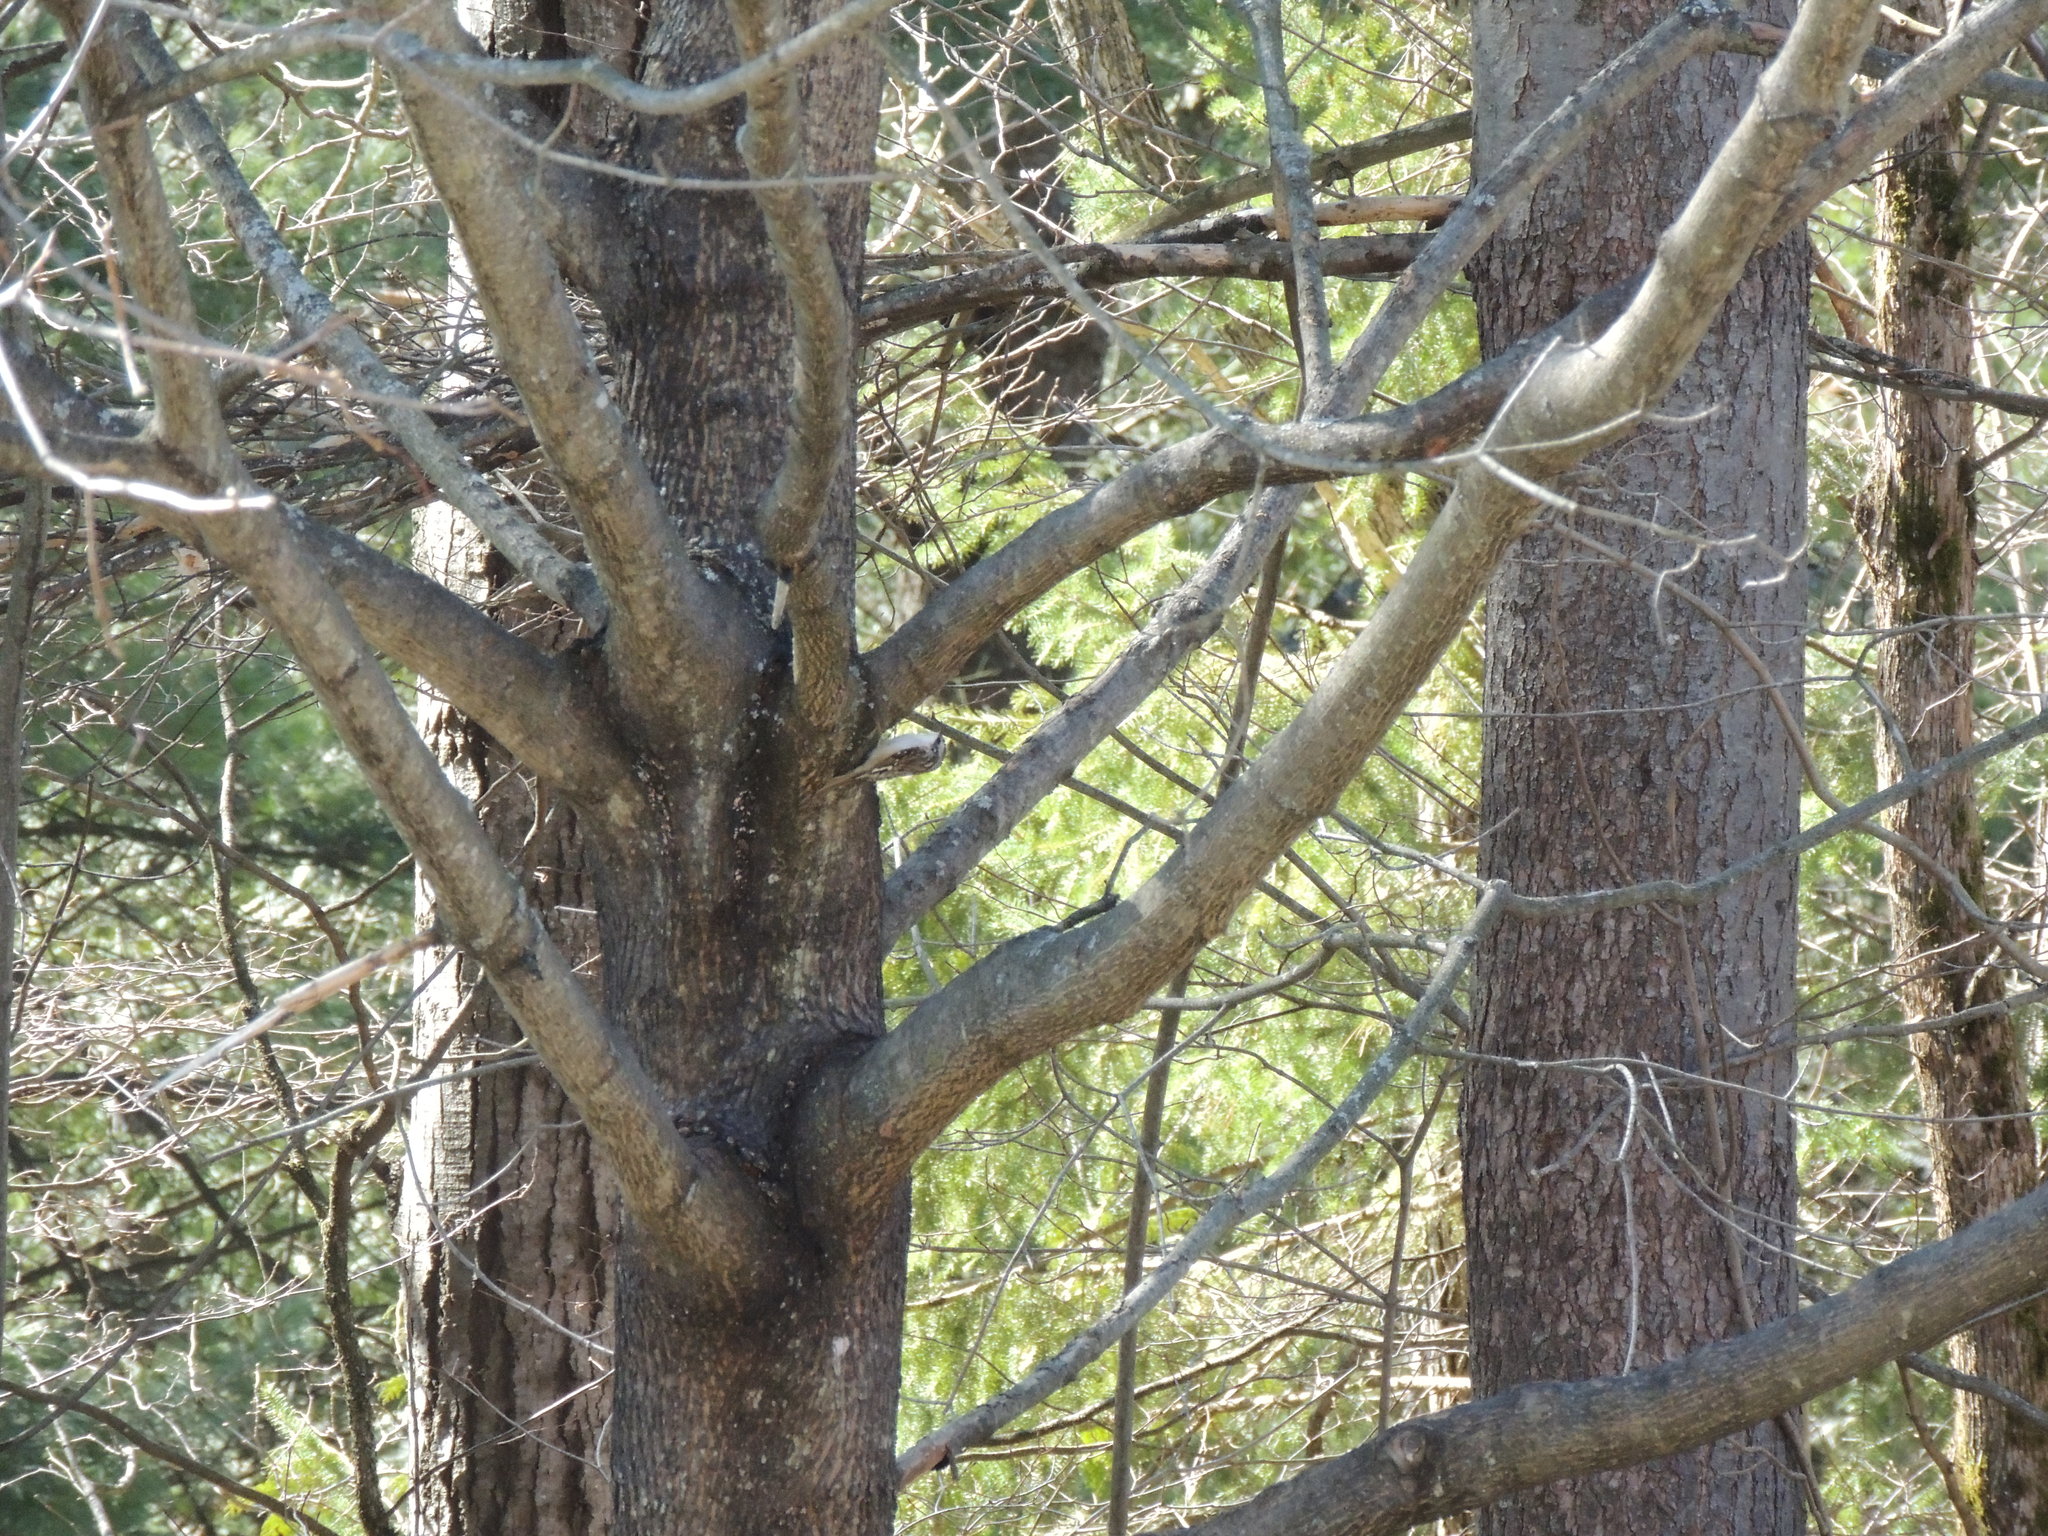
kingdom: Animalia
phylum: Chordata
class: Aves
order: Passeriformes
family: Certhiidae
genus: Certhia
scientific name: Certhia americana
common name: Brown creeper
